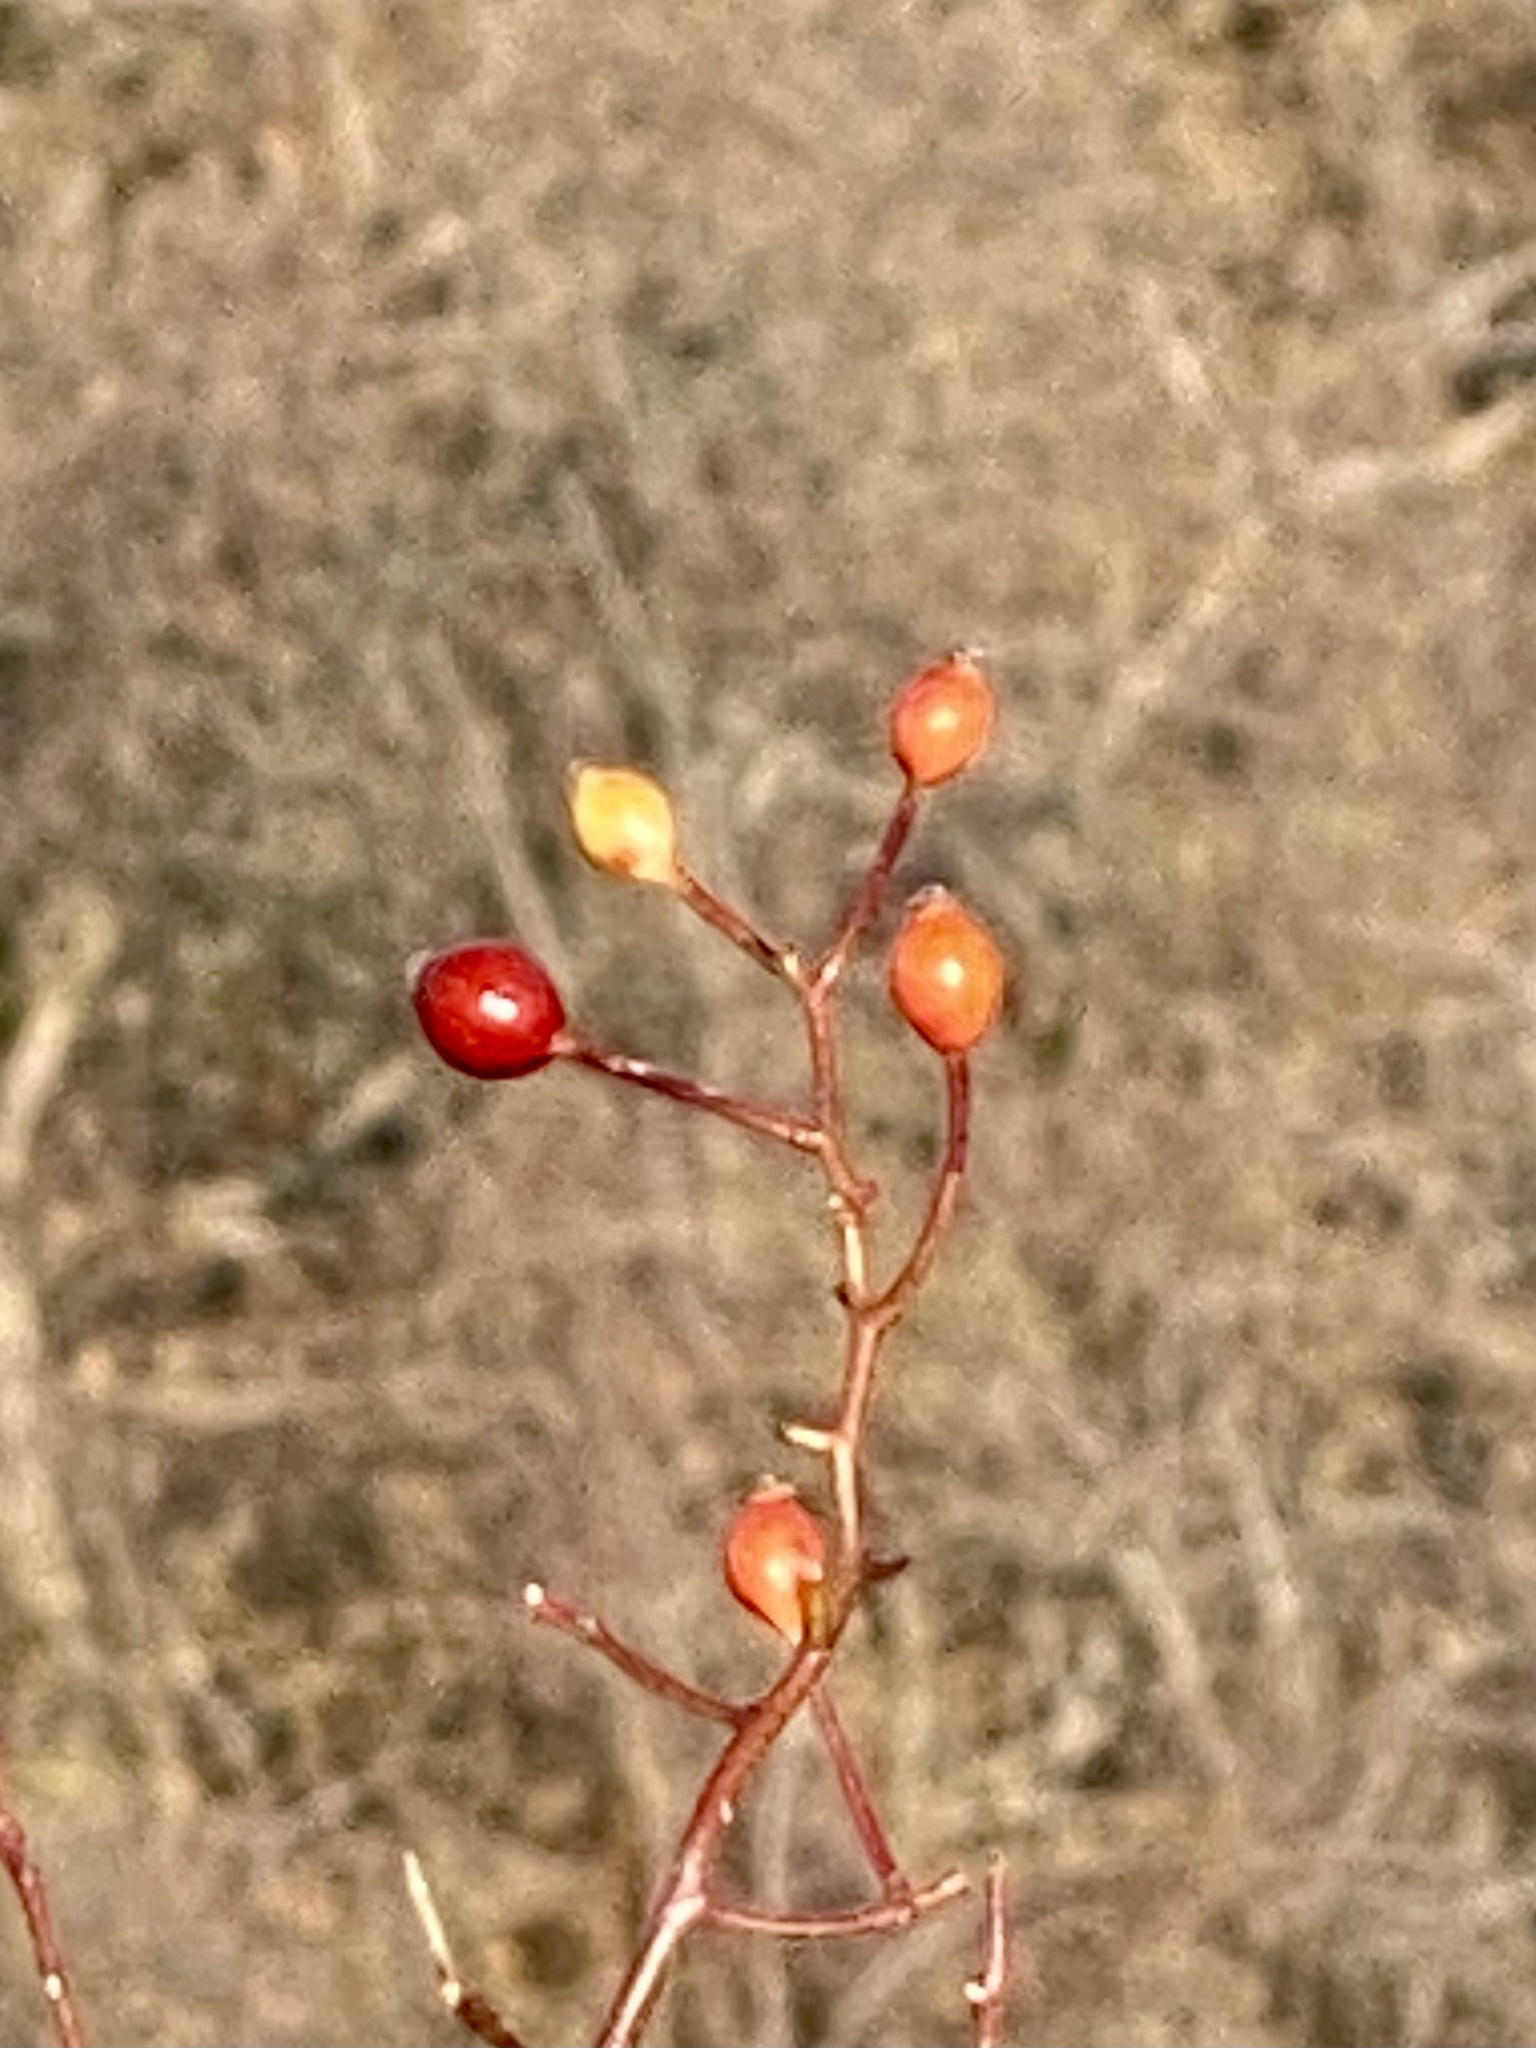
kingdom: Plantae
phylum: Tracheophyta
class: Magnoliopsida
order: Rosales
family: Rosaceae
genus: Rosa
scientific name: Rosa multiflora
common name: Multiflora rose
